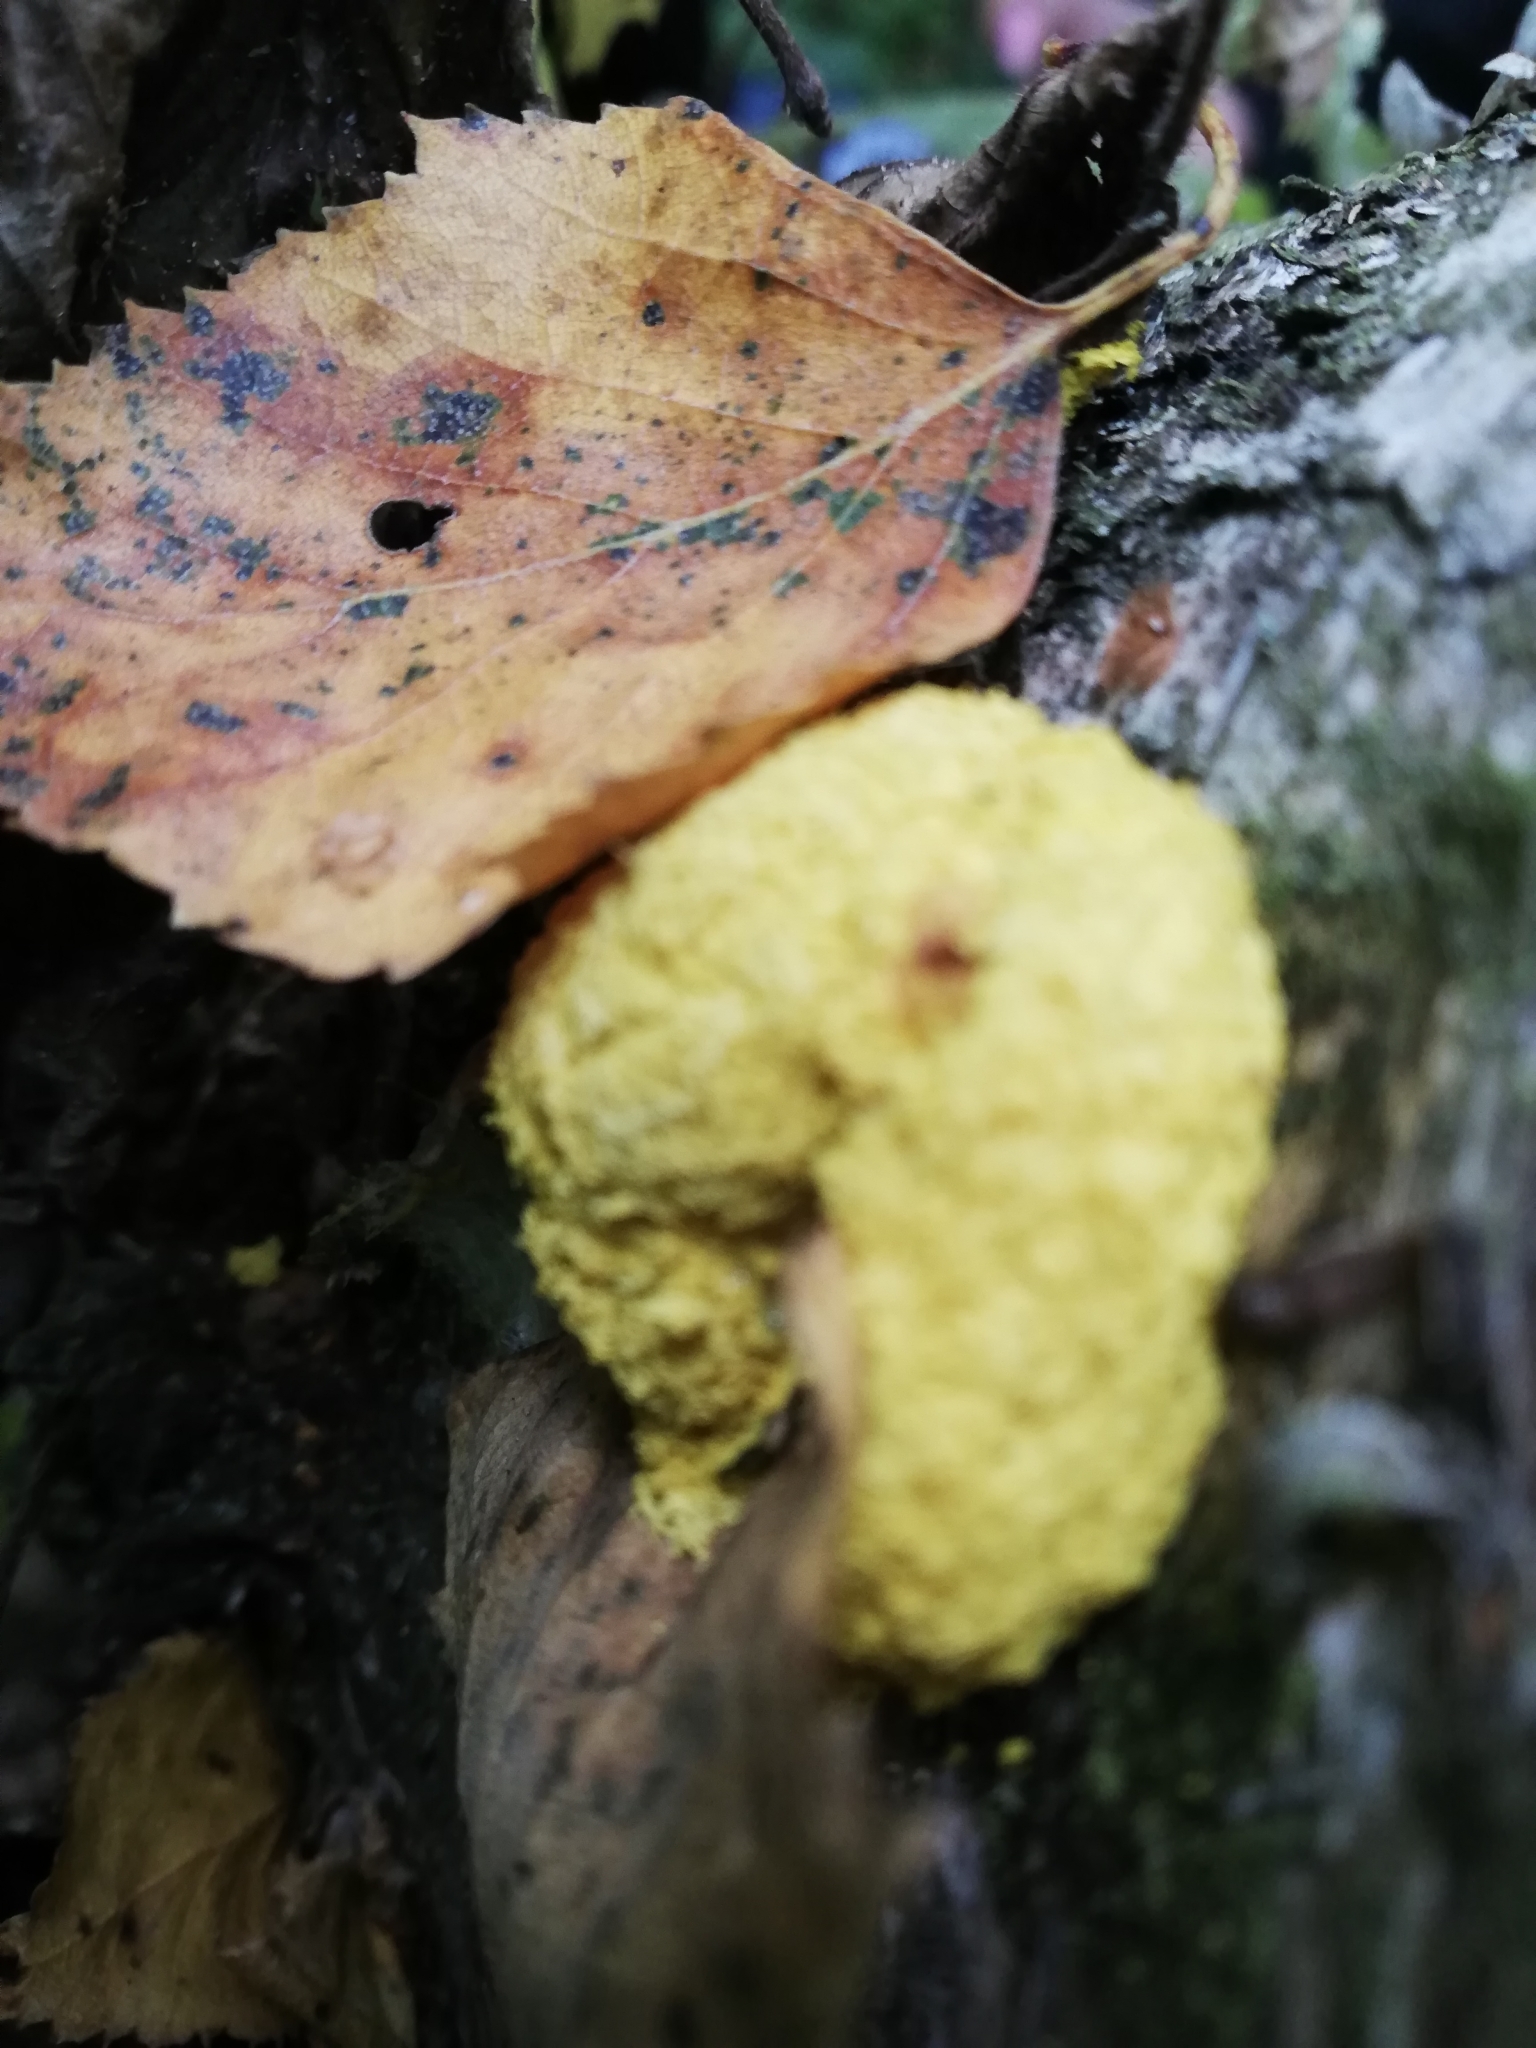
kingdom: Protozoa
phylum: Mycetozoa
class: Myxomycetes
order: Physarales
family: Physaraceae
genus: Fuligo
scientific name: Fuligo septica
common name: Dog vomit slime mold
